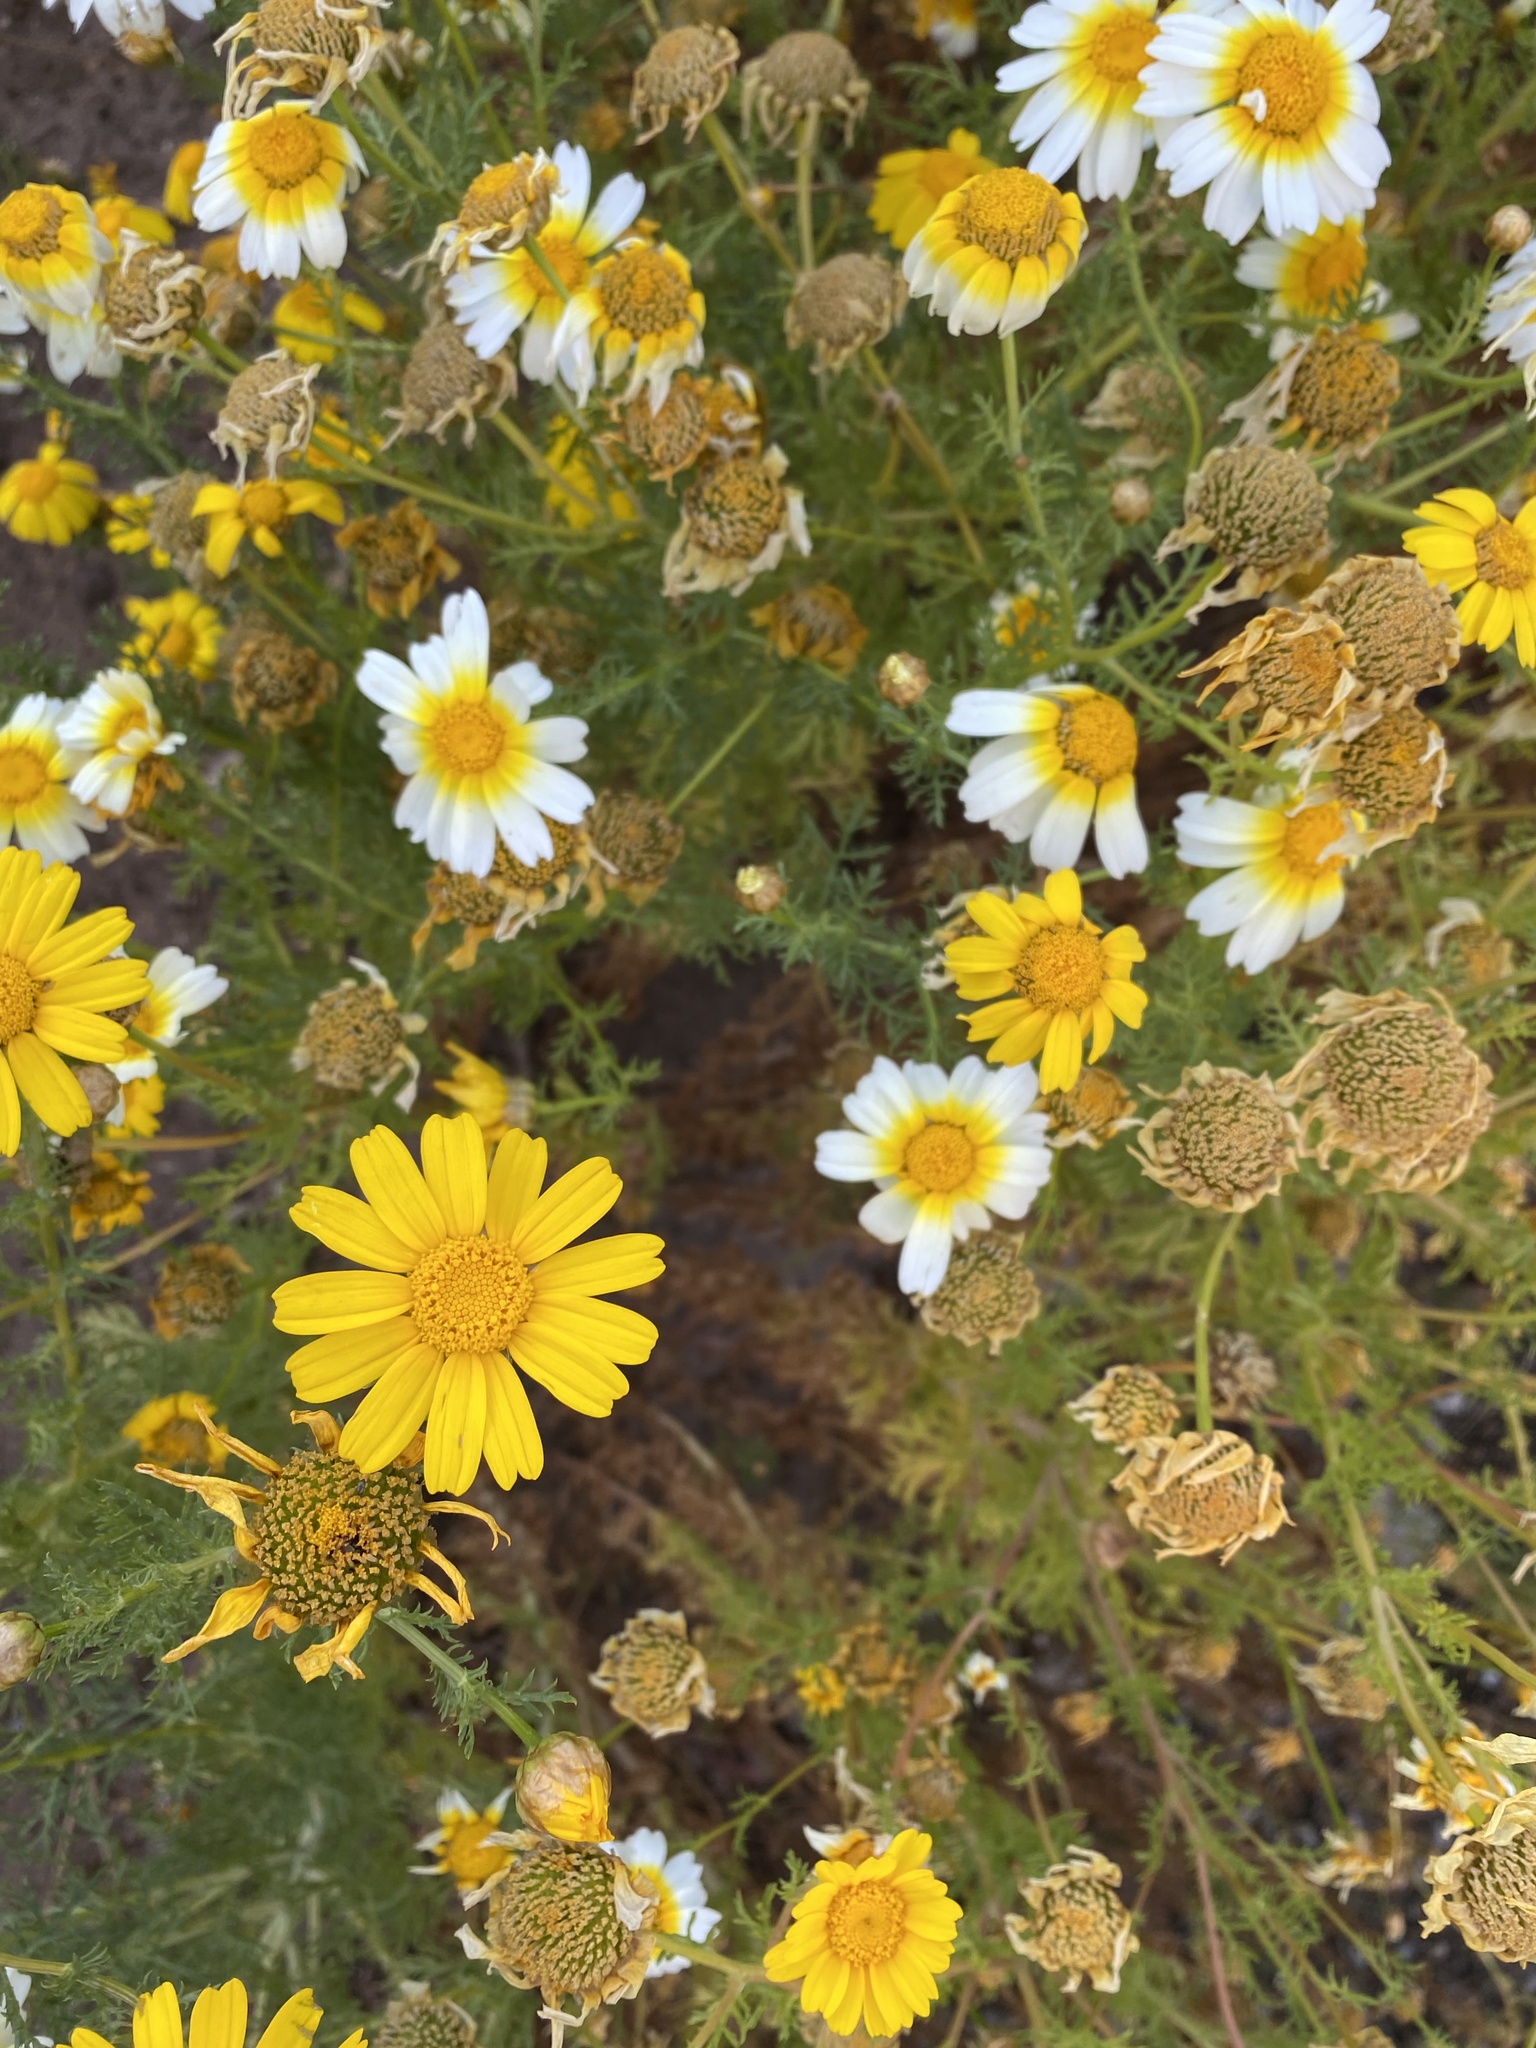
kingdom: Plantae
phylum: Tracheophyta
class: Magnoliopsida
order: Asterales
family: Asteraceae
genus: Glebionis
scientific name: Glebionis coronaria
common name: Crowndaisy
